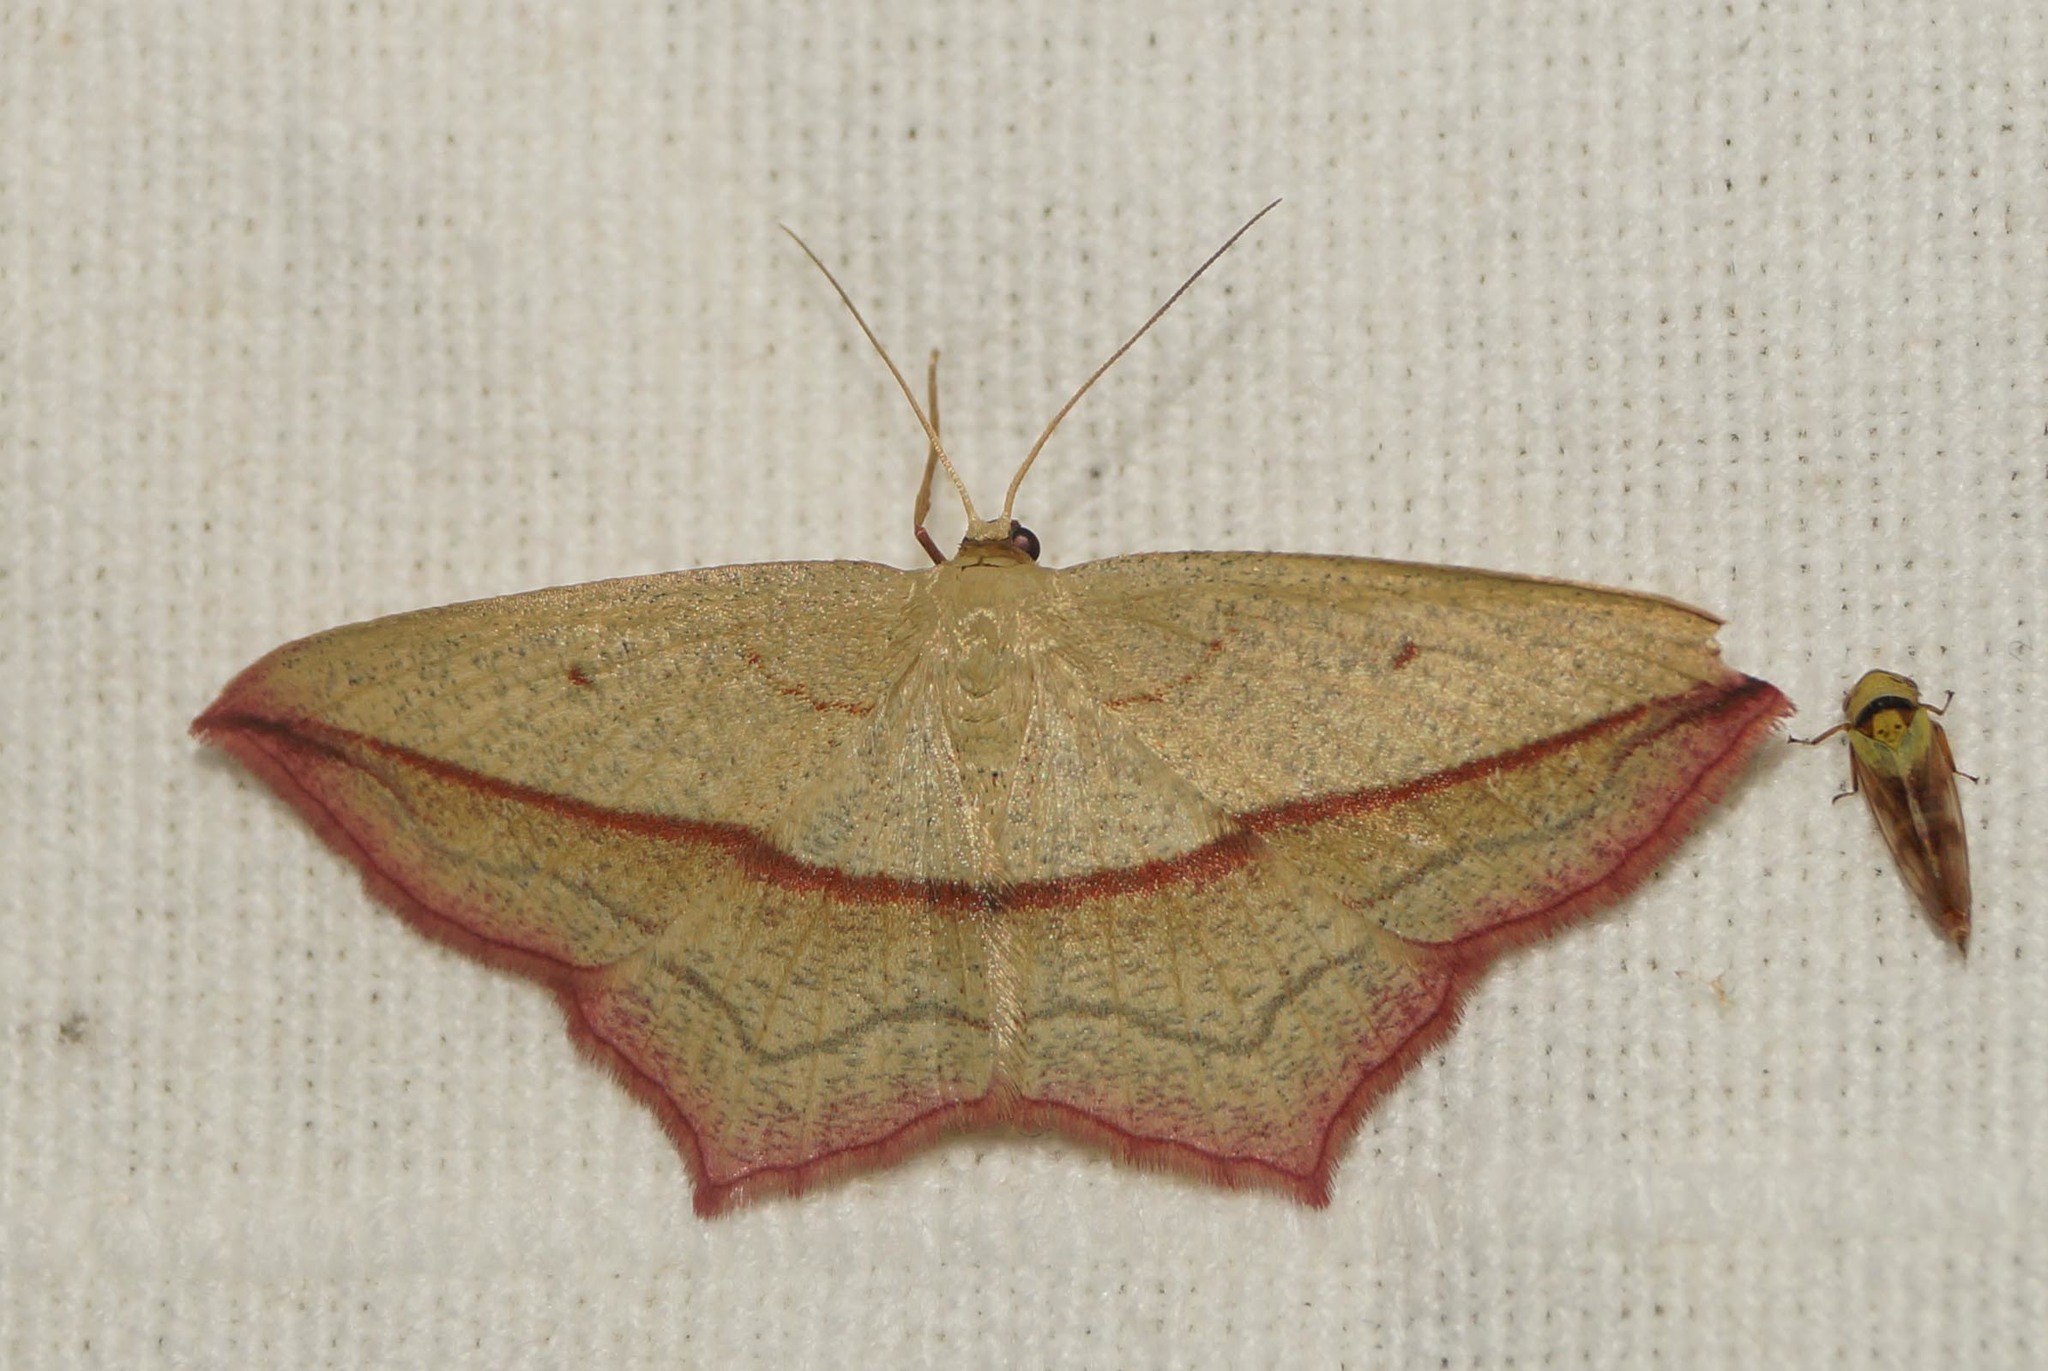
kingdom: Animalia
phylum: Arthropoda
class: Insecta
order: Lepidoptera
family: Geometridae
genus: Timandra
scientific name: Timandra comae
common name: Blood-vein
